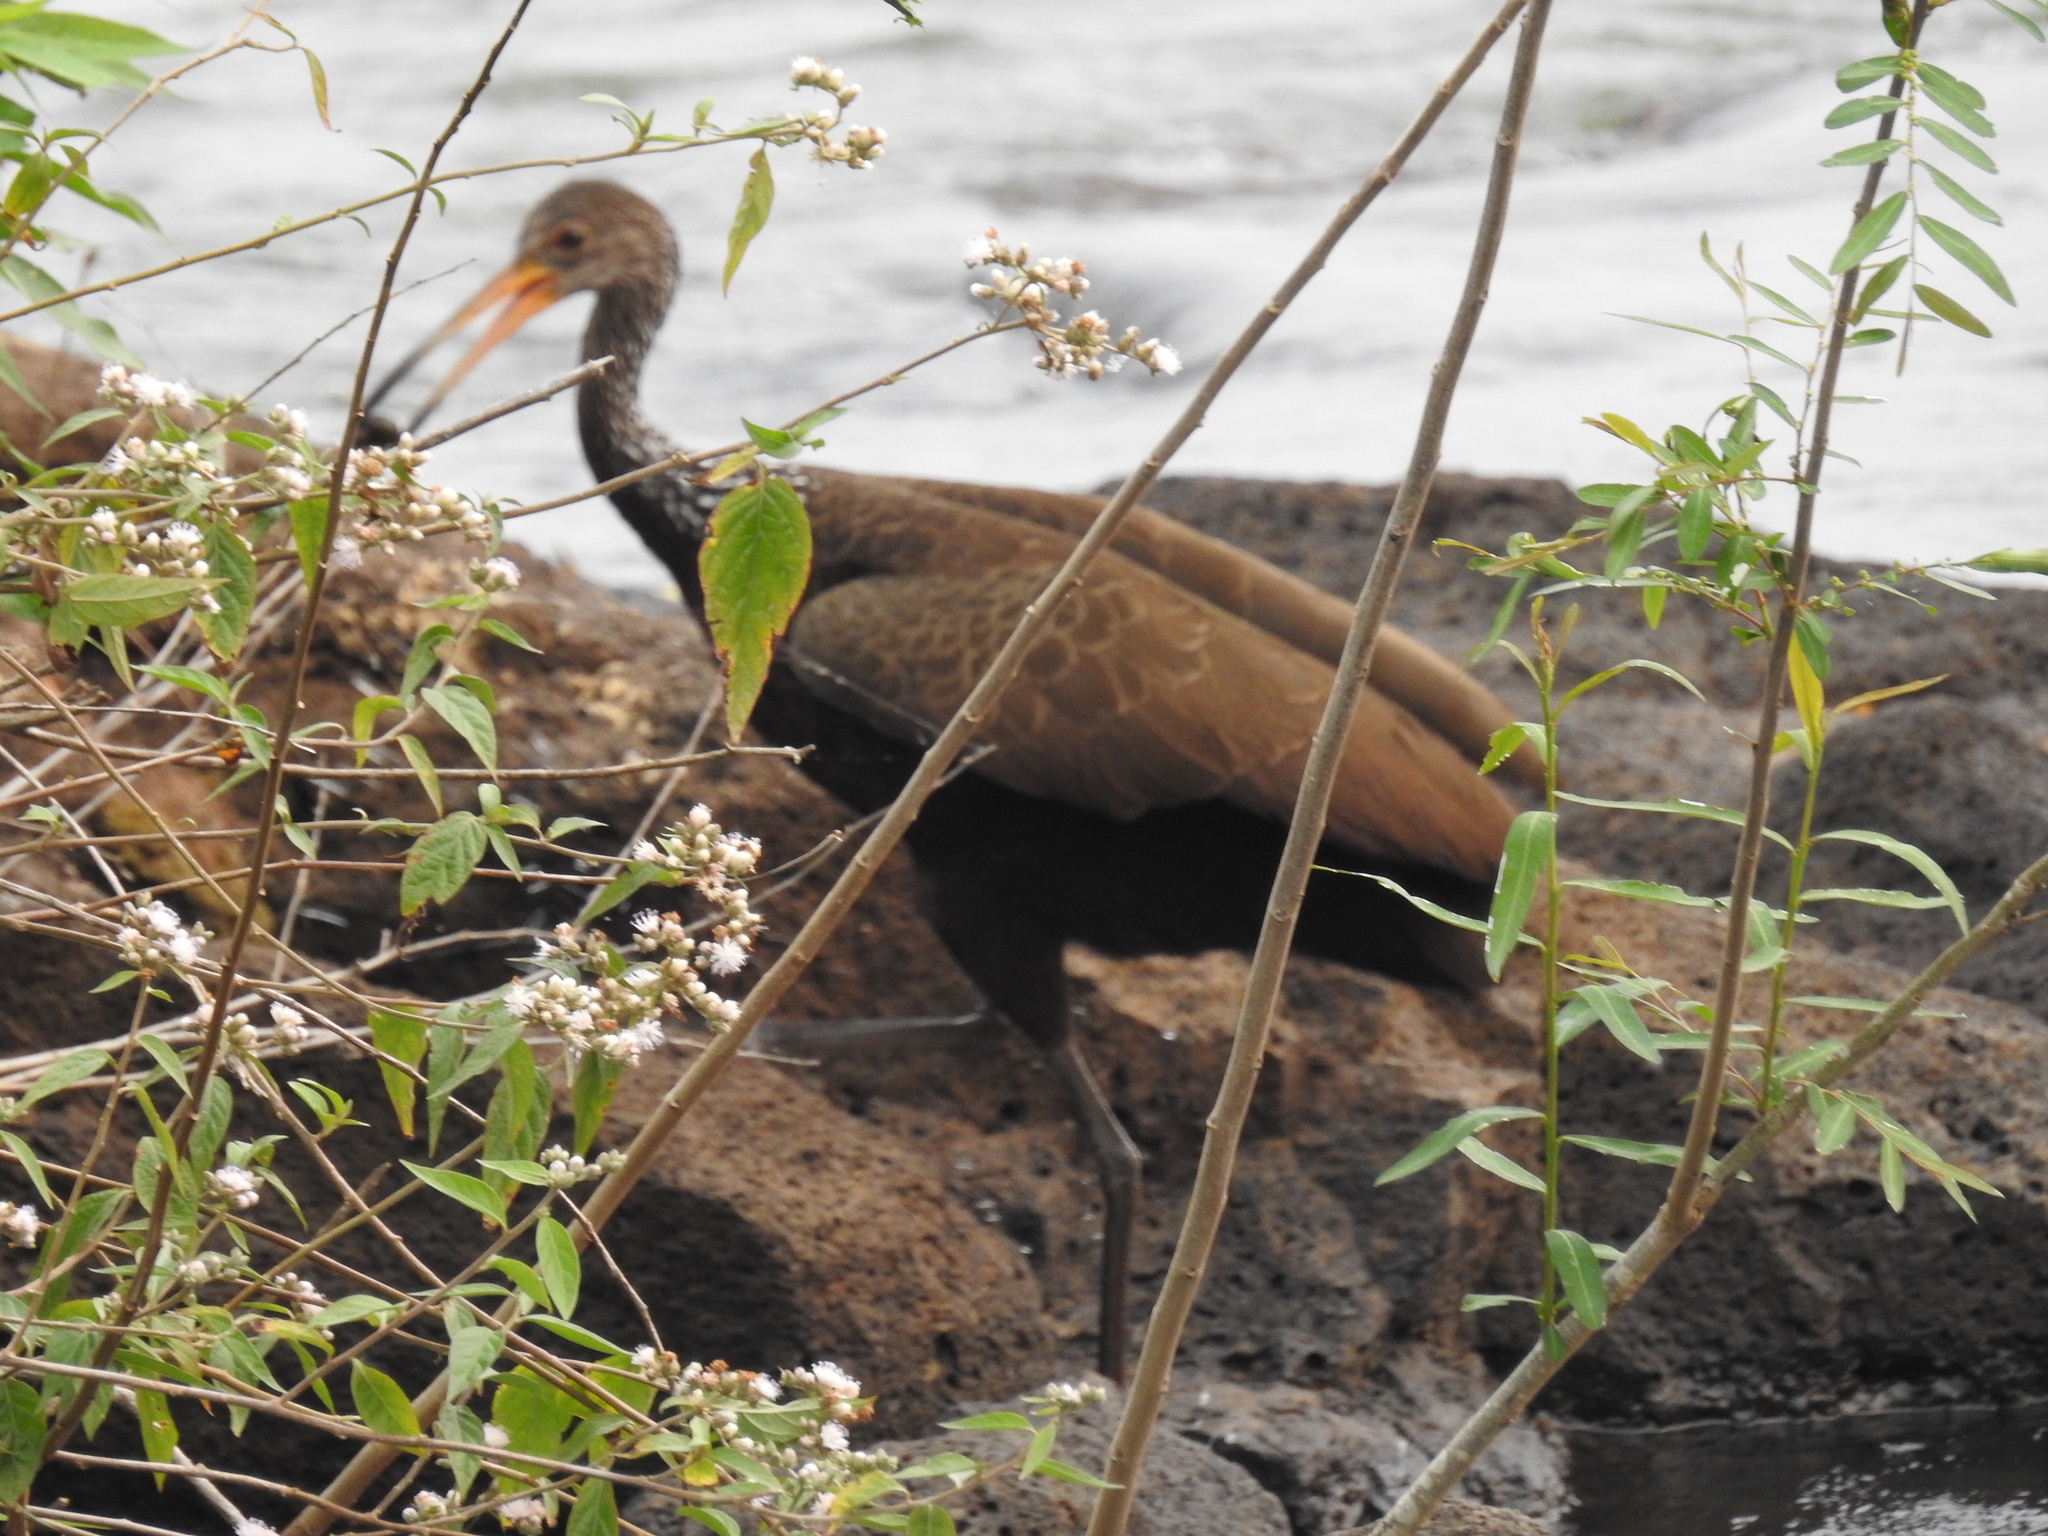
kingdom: Animalia
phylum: Chordata
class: Aves
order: Gruiformes
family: Aramidae
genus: Aramus
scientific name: Aramus guarauna
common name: Limpkin
